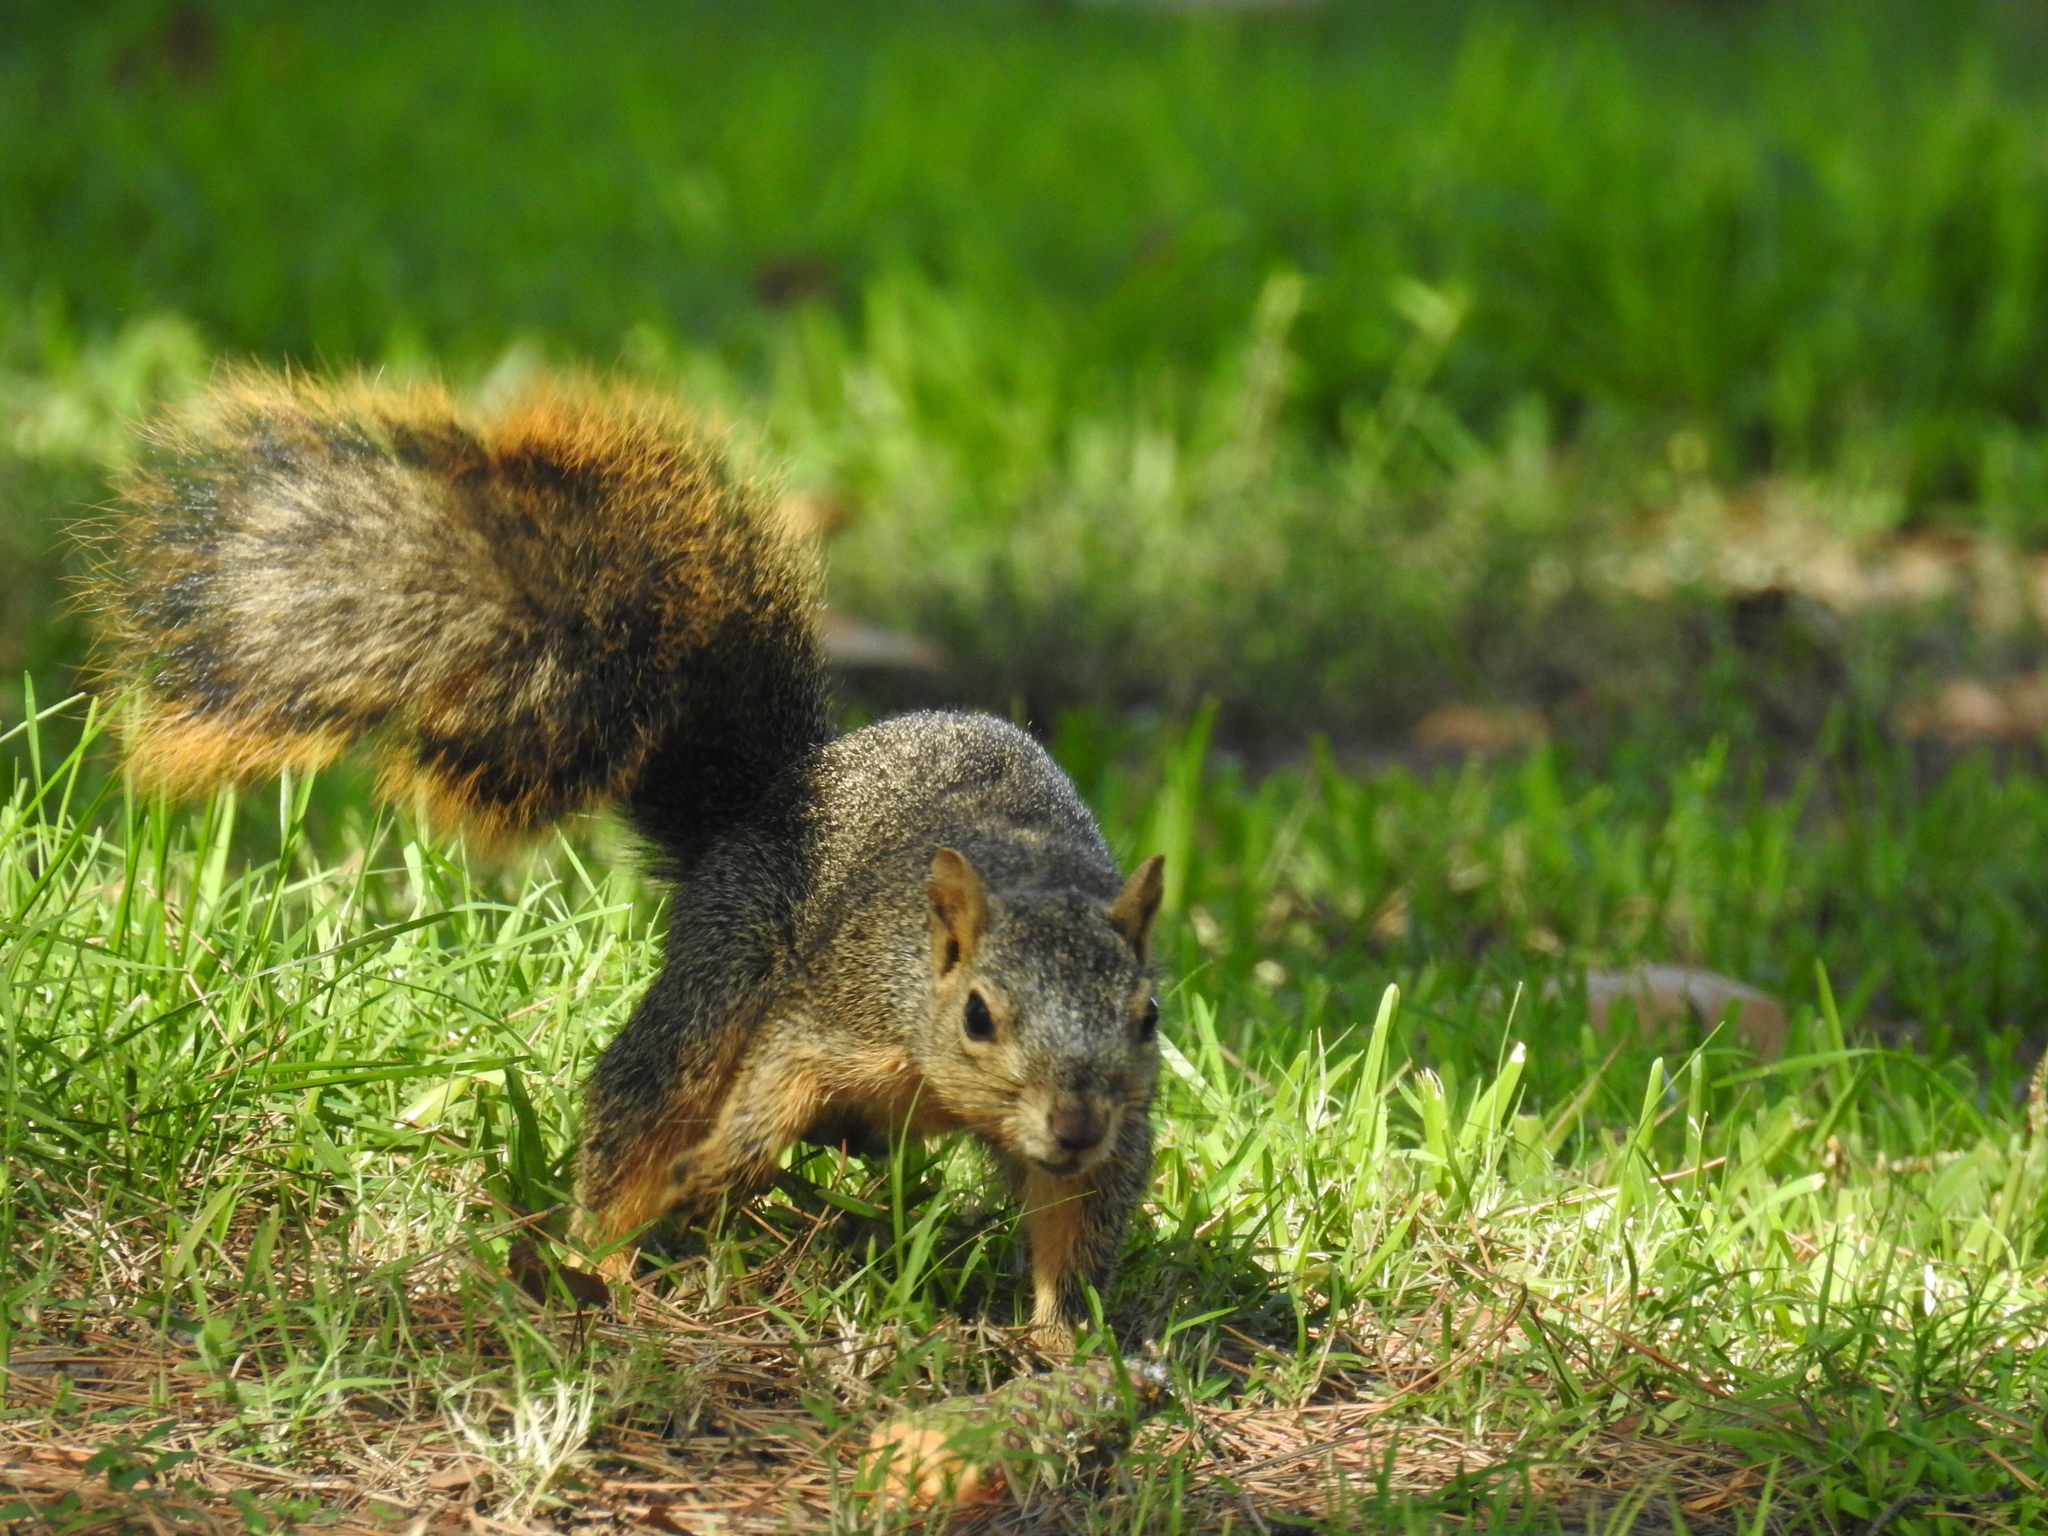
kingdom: Animalia
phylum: Chordata
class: Mammalia
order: Rodentia
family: Sciuridae
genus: Sciurus
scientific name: Sciurus niger
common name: Fox squirrel
